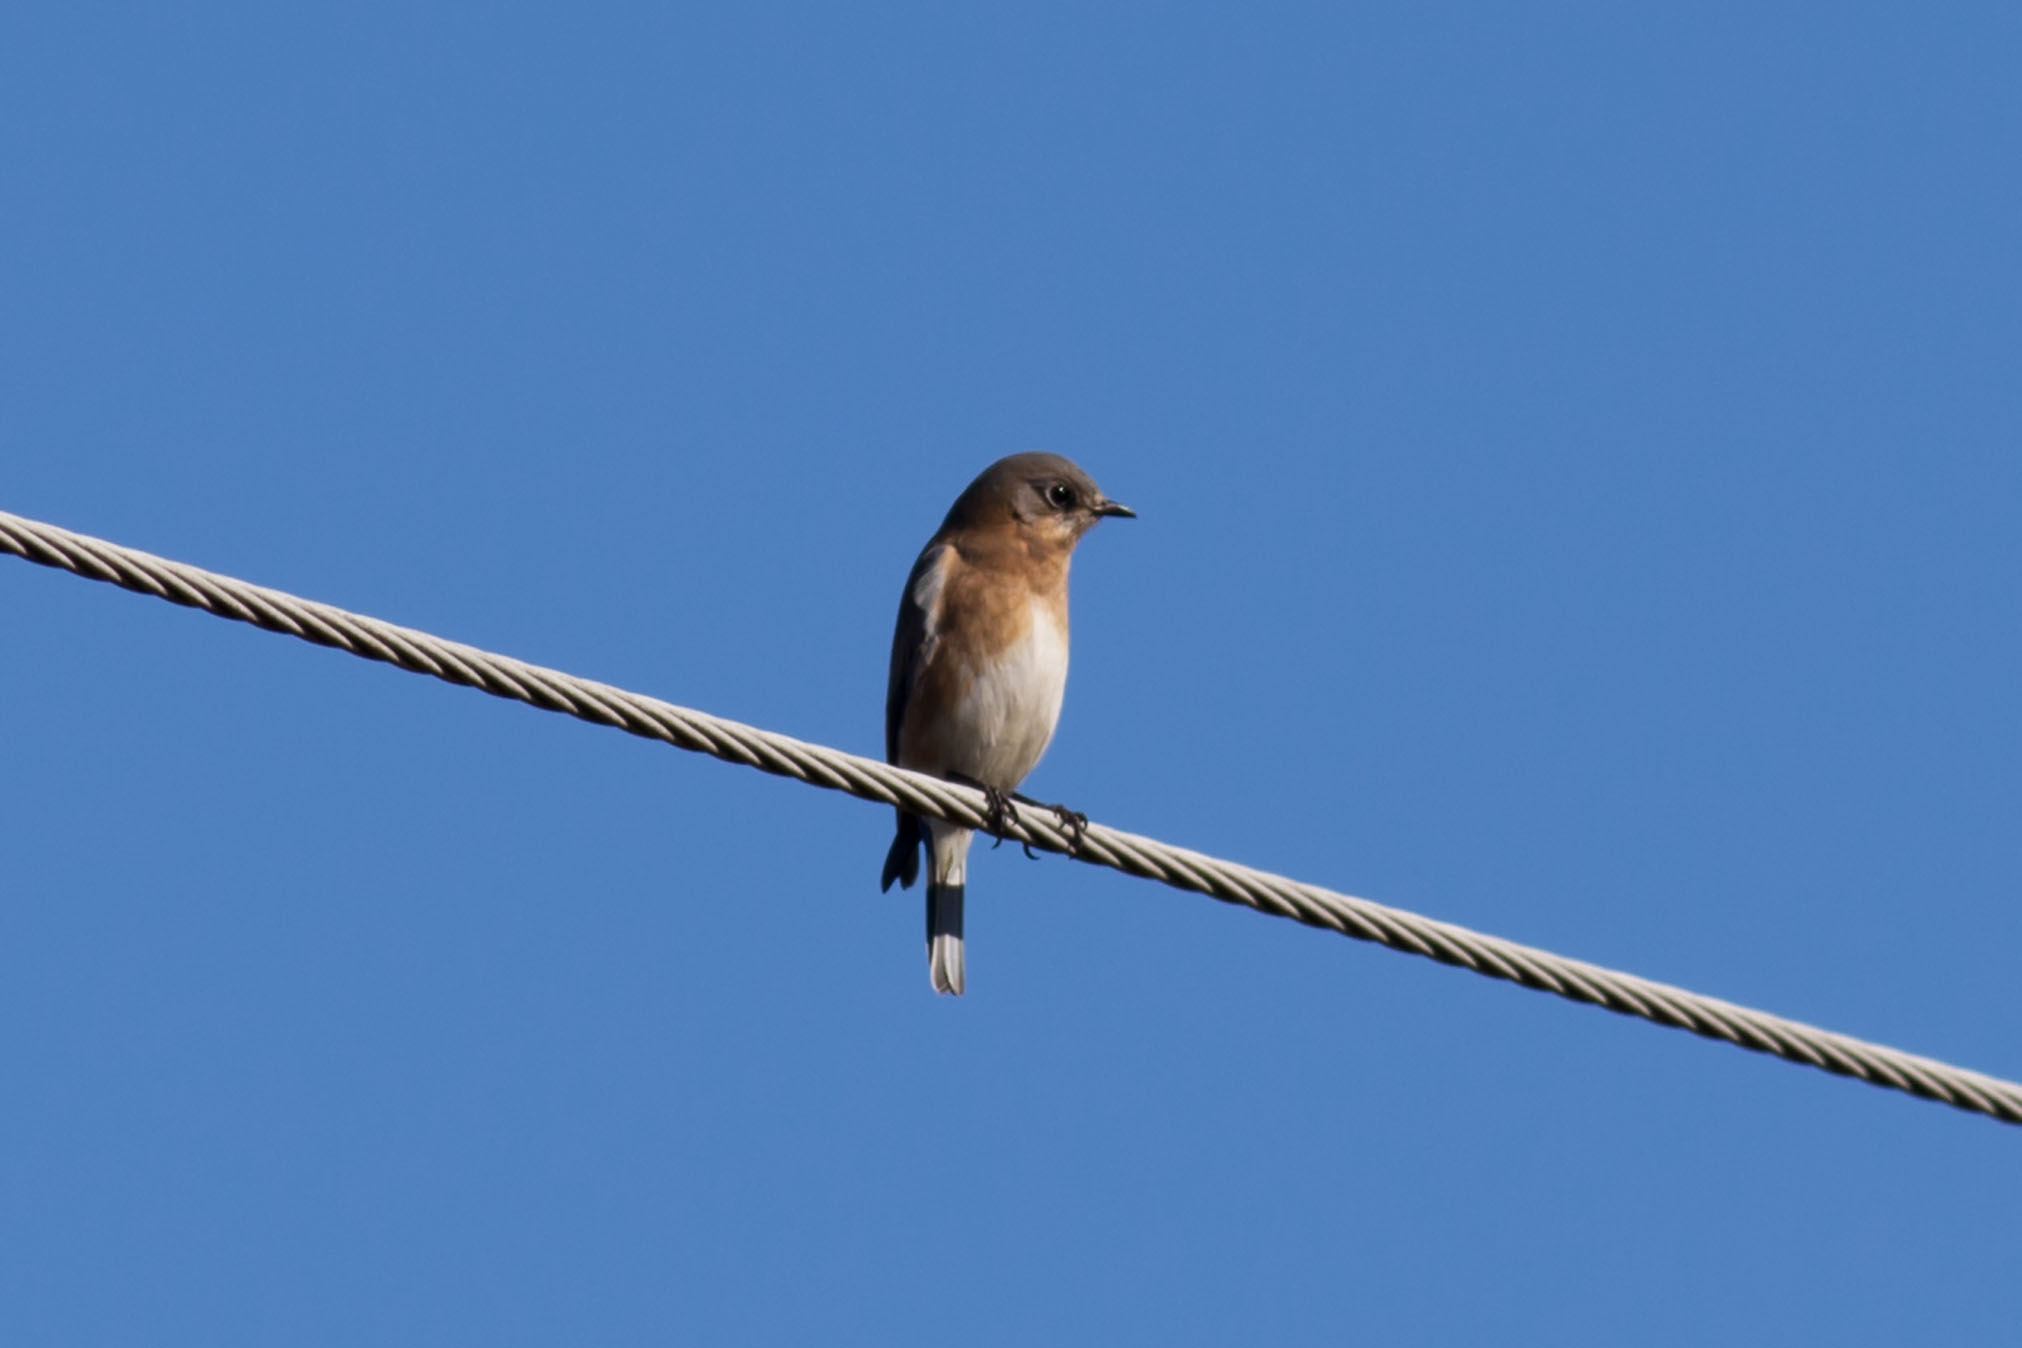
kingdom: Animalia
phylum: Chordata
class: Aves
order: Passeriformes
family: Turdidae
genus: Sialia
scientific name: Sialia sialis
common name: Eastern bluebird
